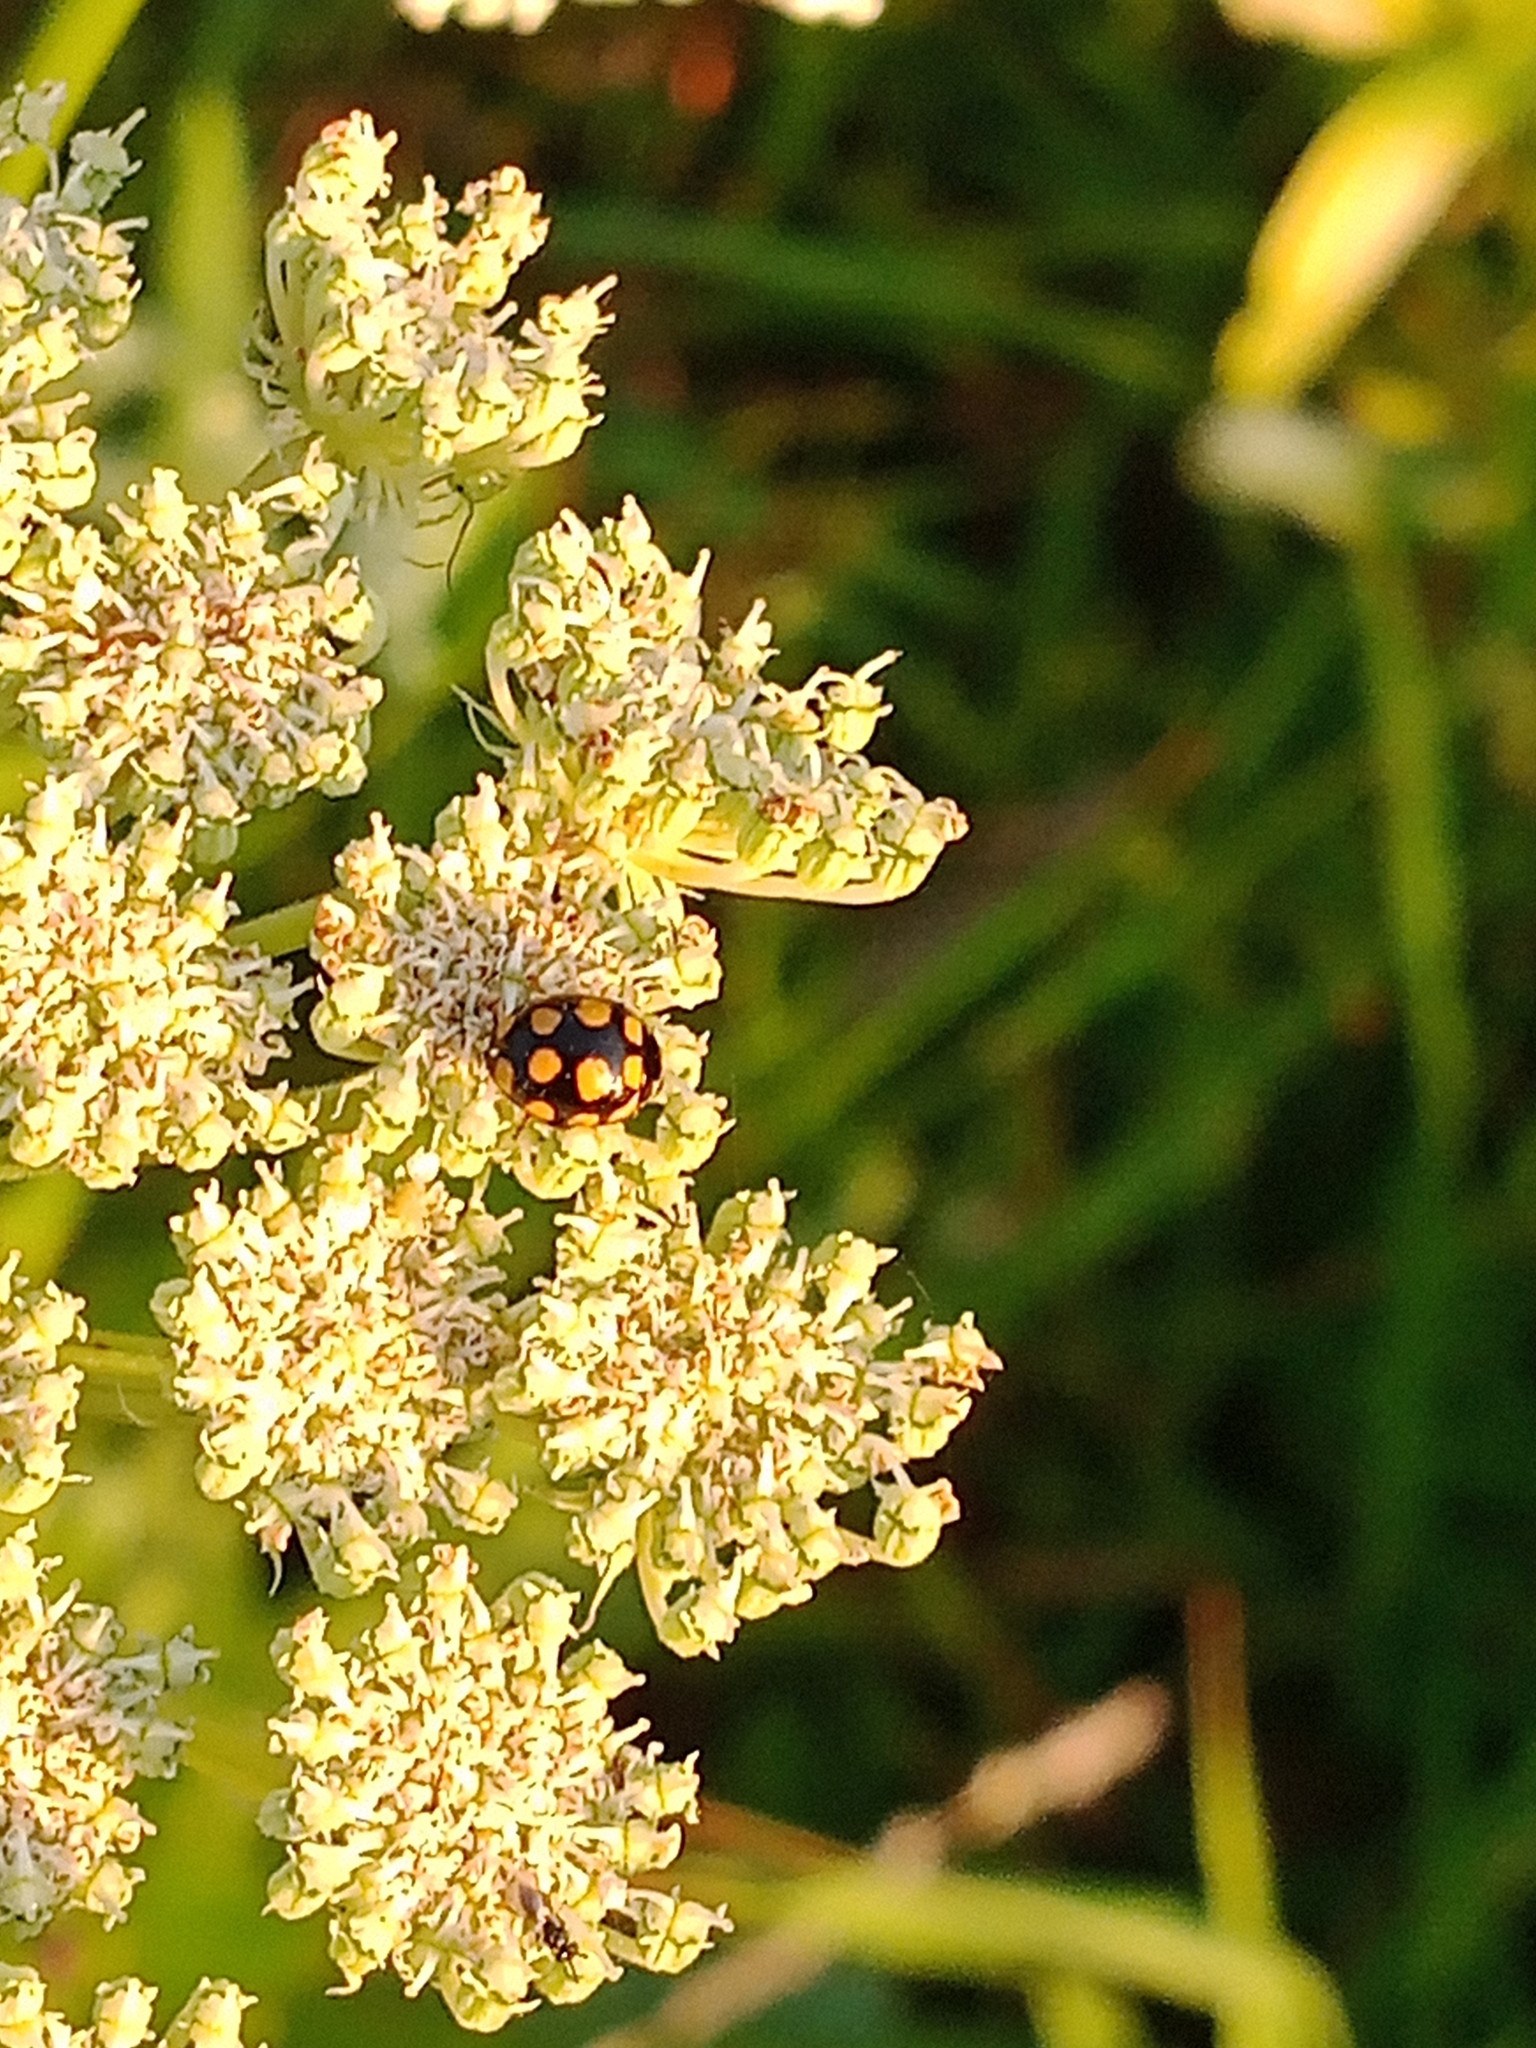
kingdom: Animalia
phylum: Arthropoda
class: Insecta
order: Coleoptera
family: Coccinellidae
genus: Coccinula
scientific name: Coccinula quatuordecimpustulata
